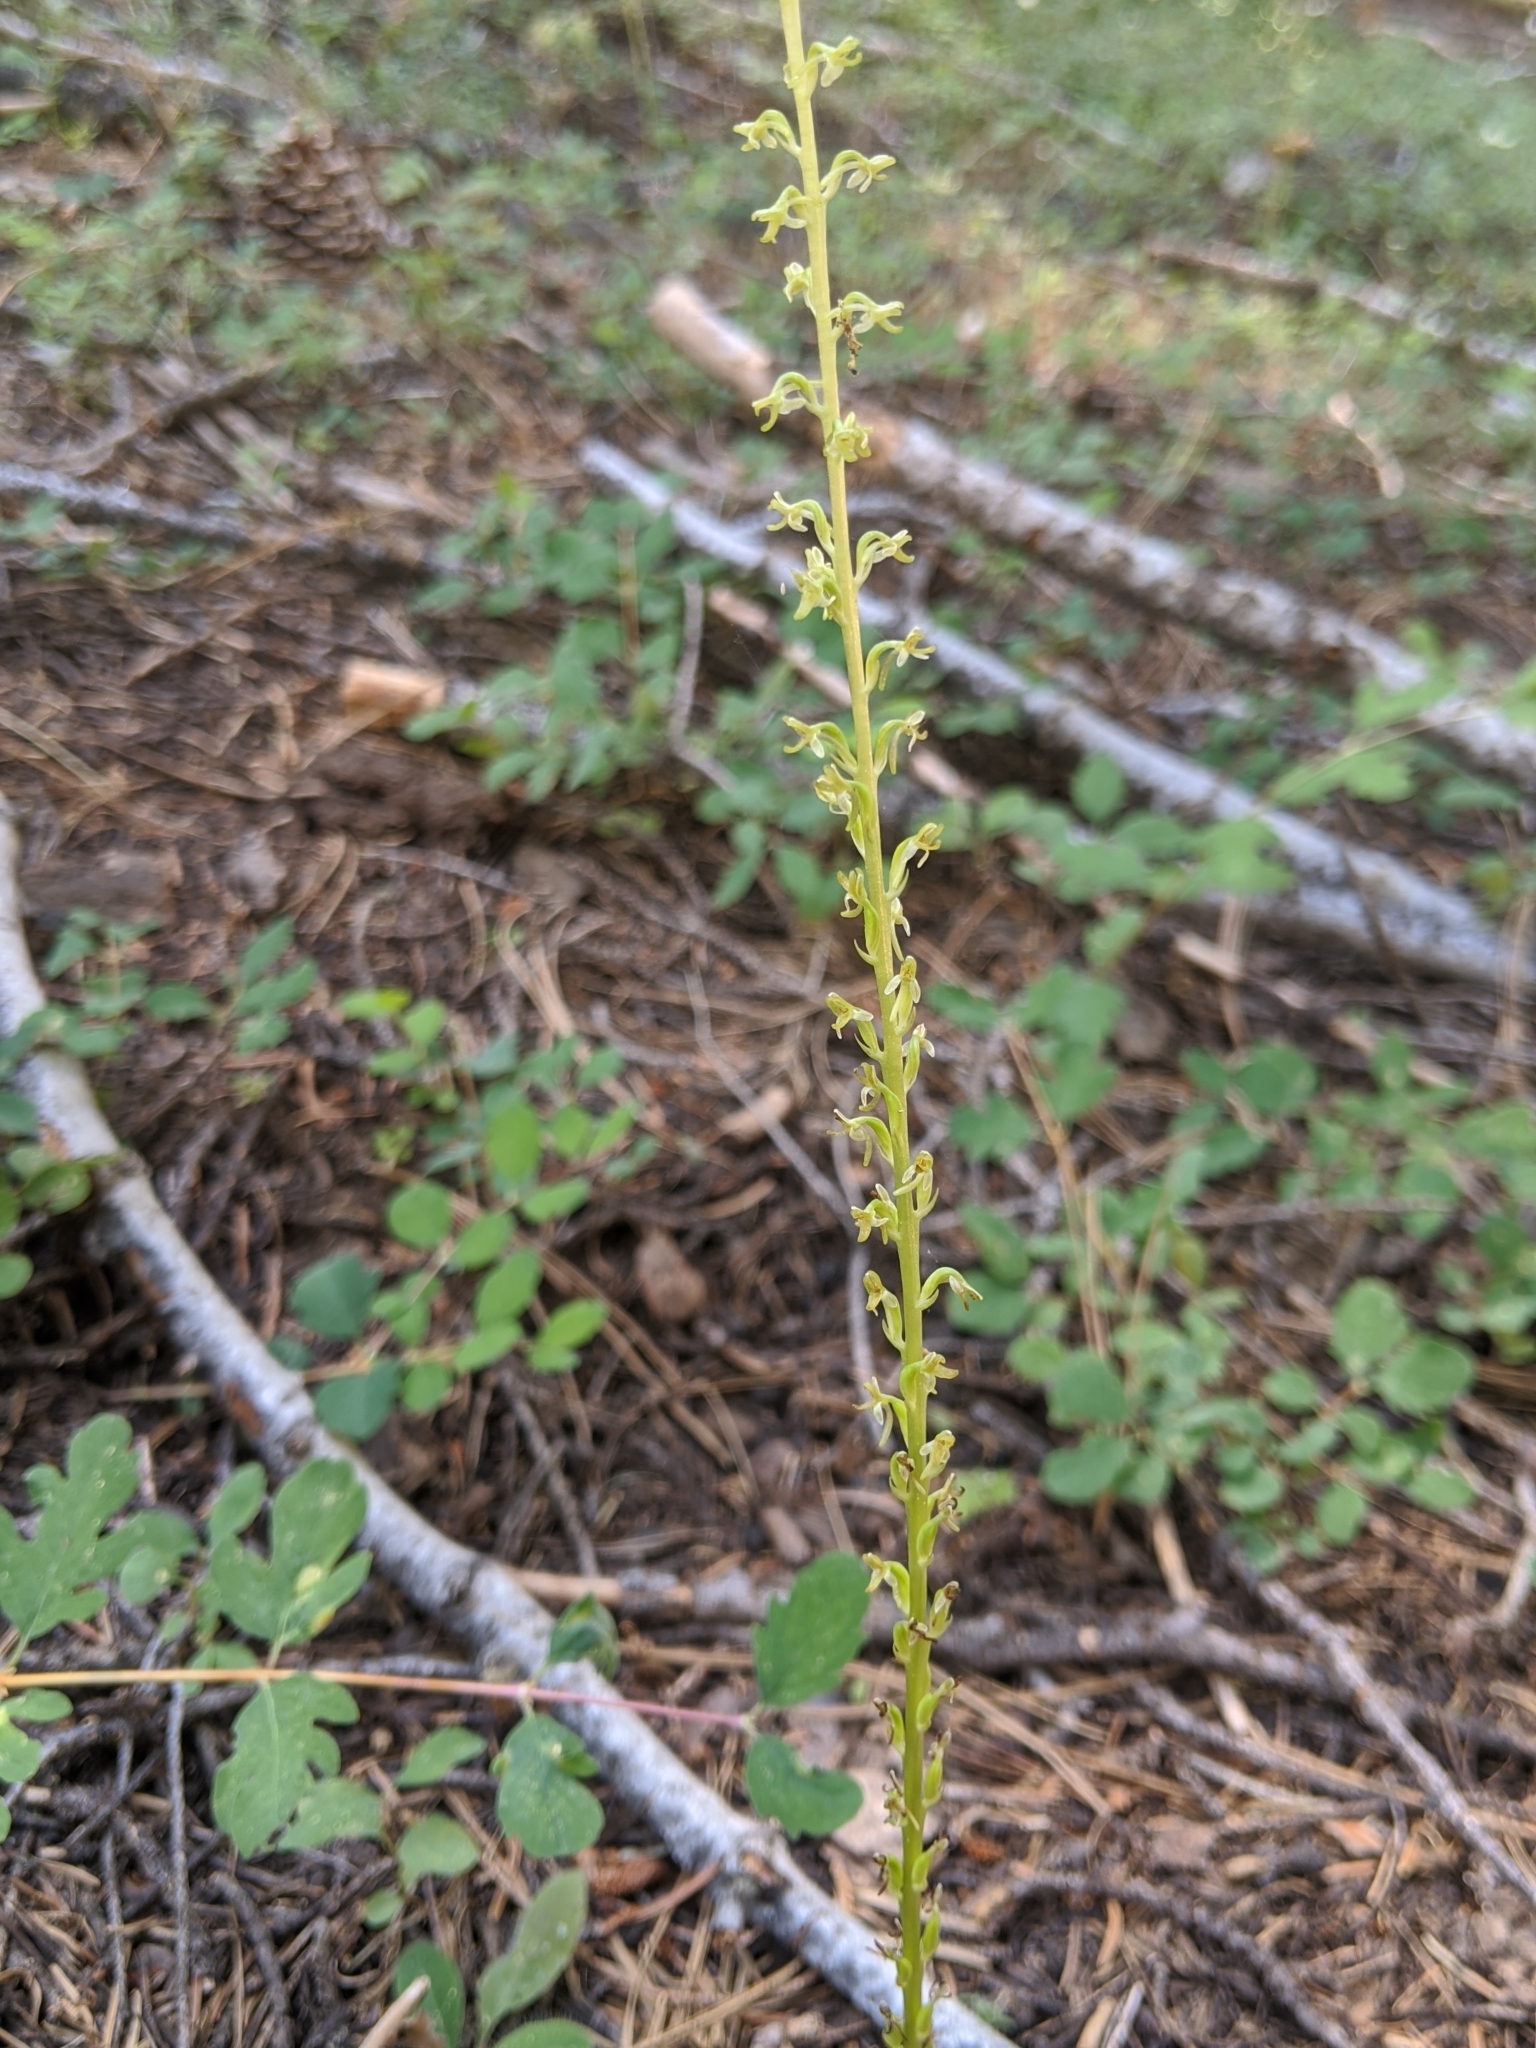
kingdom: Plantae
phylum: Tracheophyta
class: Liliopsida
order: Asparagales
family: Orchidaceae
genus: Platanthera
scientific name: Platanthera unalascensis
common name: Alaska bog orchid
